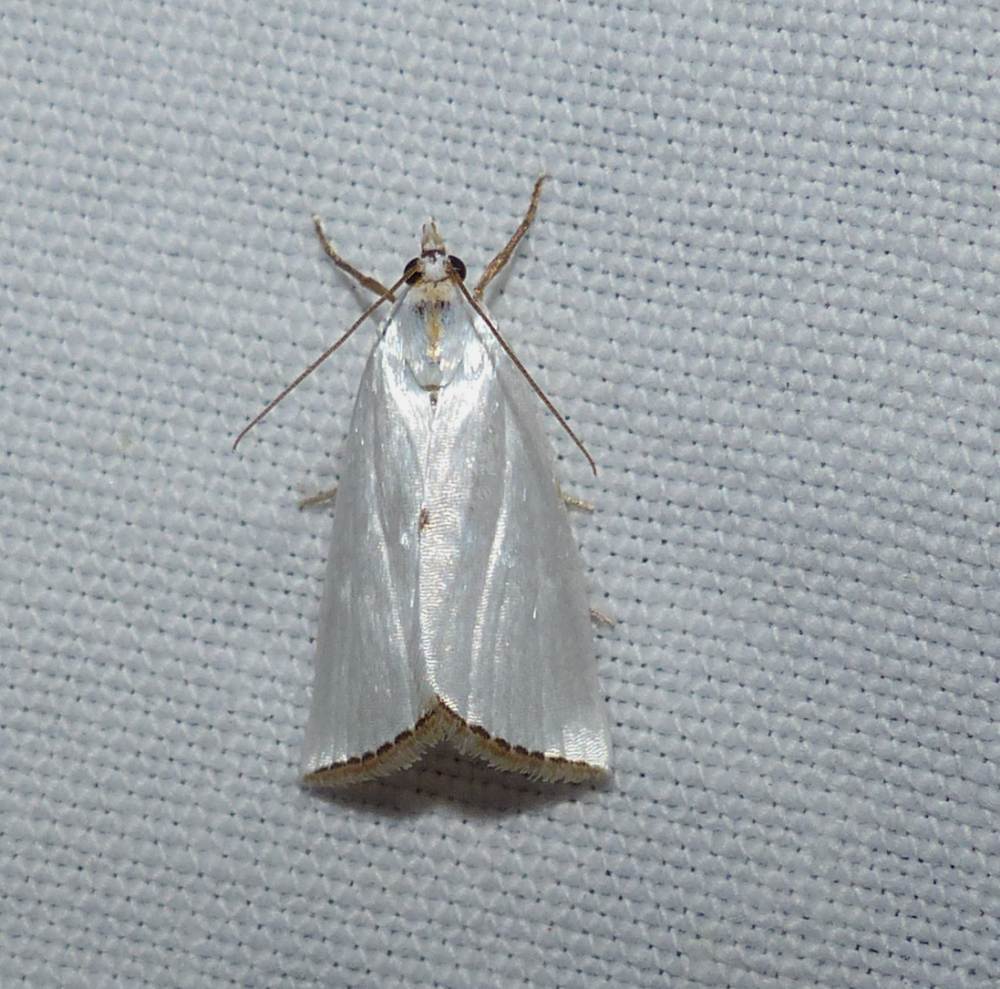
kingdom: Animalia
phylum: Arthropoda
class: Insecta
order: Lepidoptera
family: Crambidae
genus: Argyria
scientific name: Argyria nivalis
